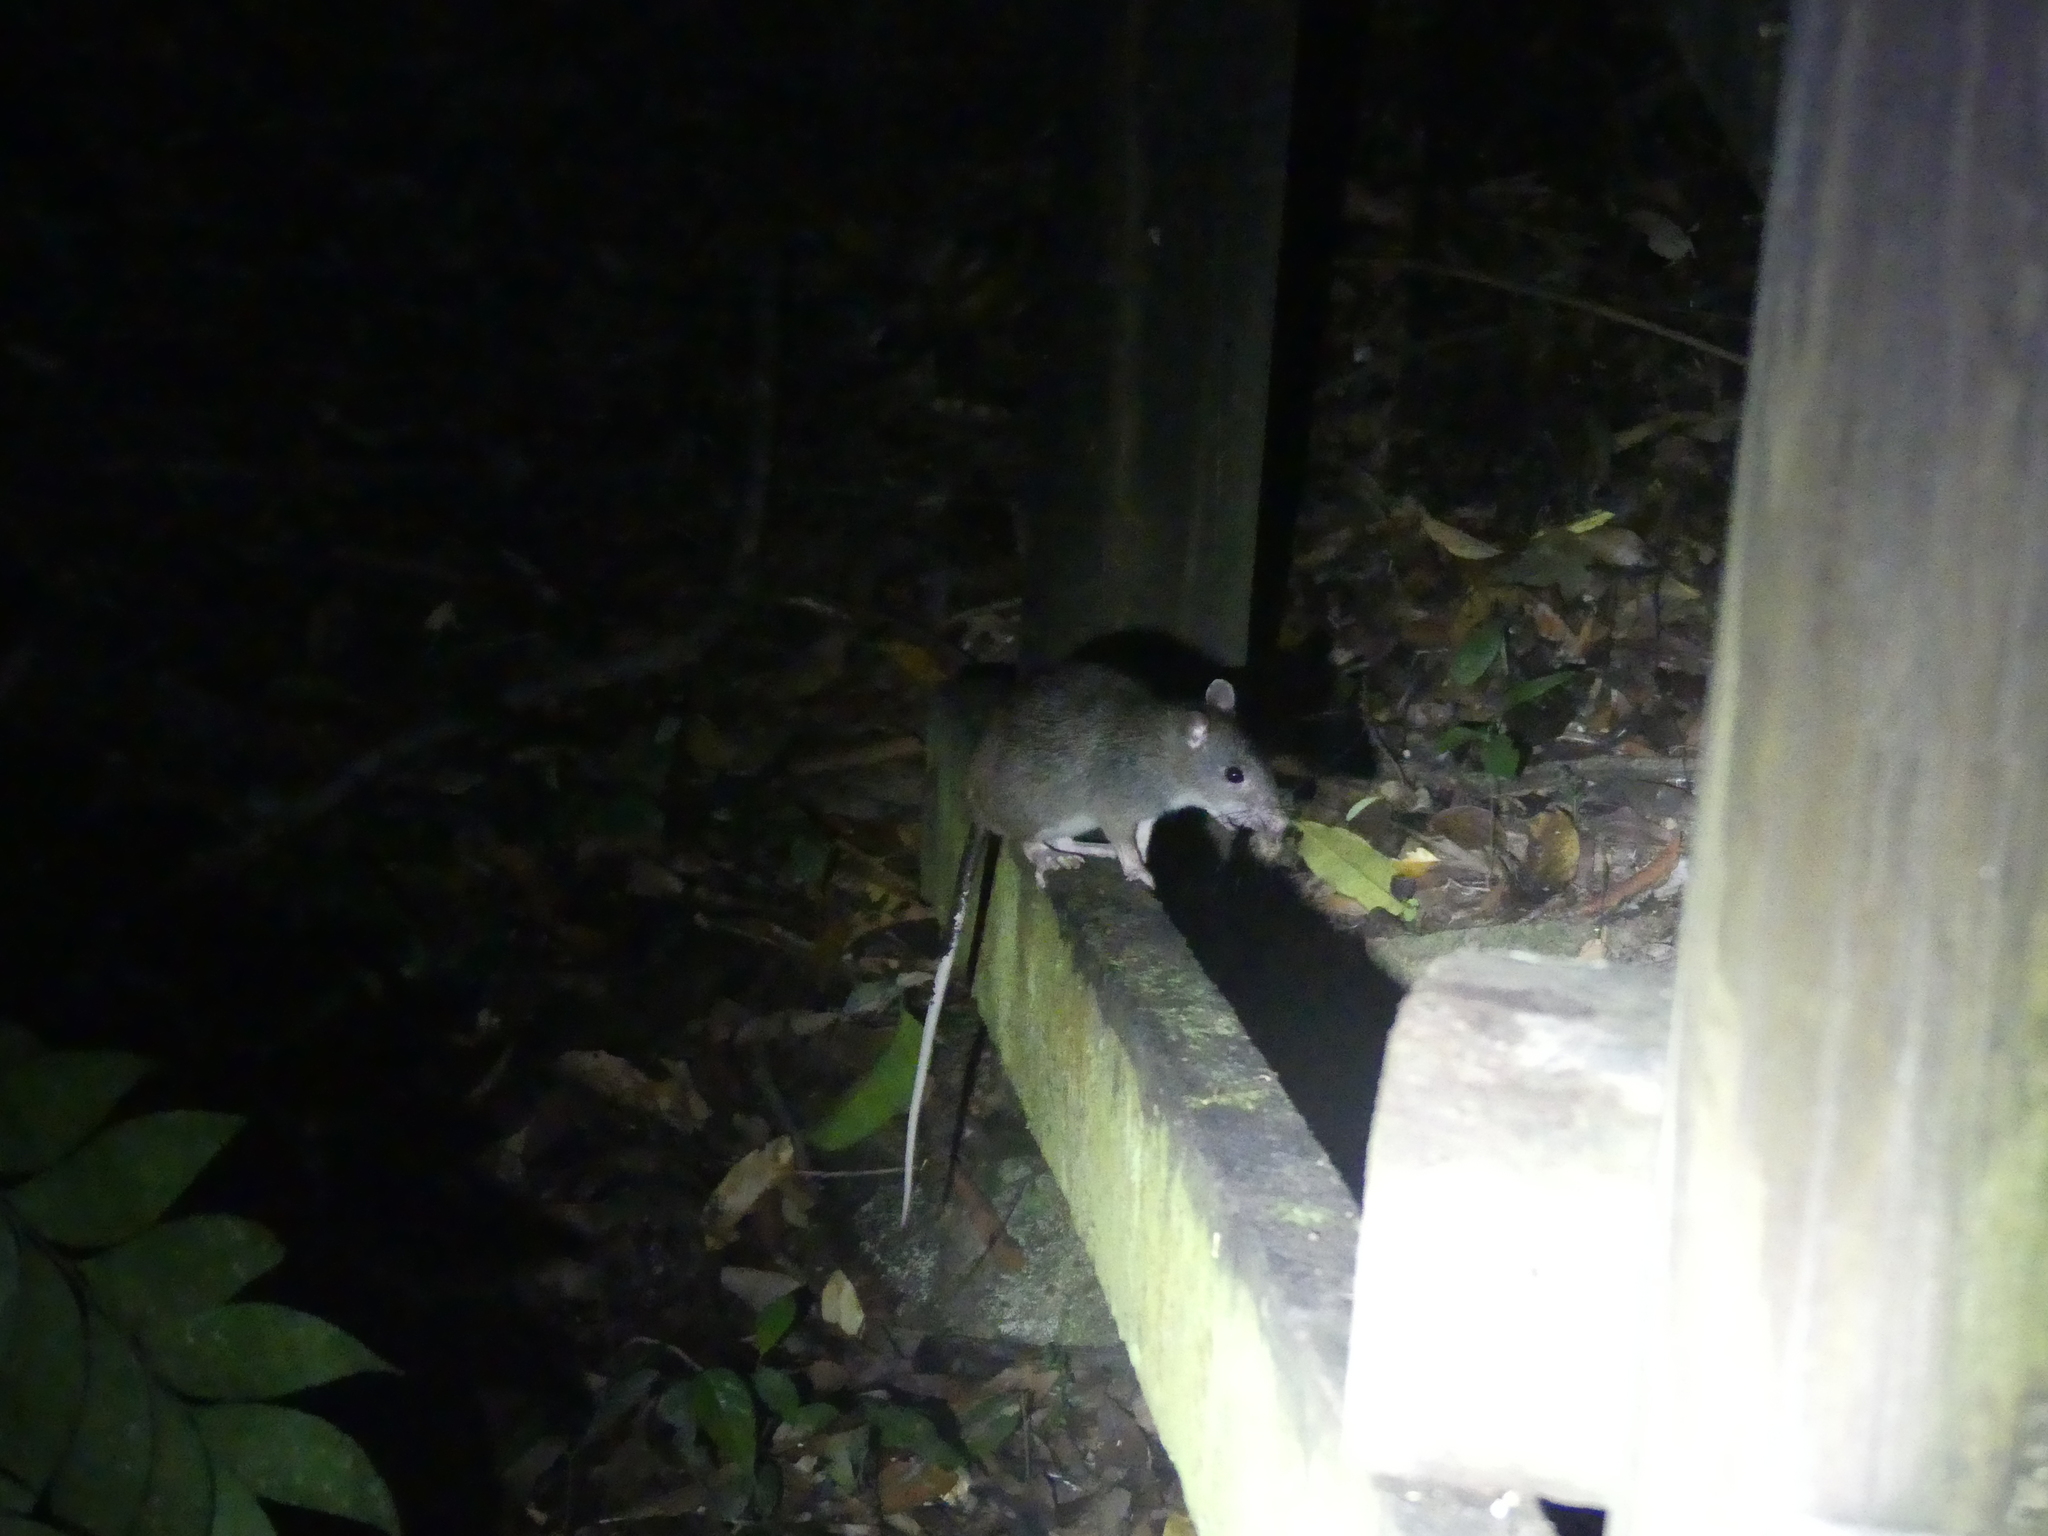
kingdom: Animalia
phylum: Chordata
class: Mammalia
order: Rodentia
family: Muridae
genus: Uromys
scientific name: Uromys caudimaculatus
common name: Giant white-tailed uromys
